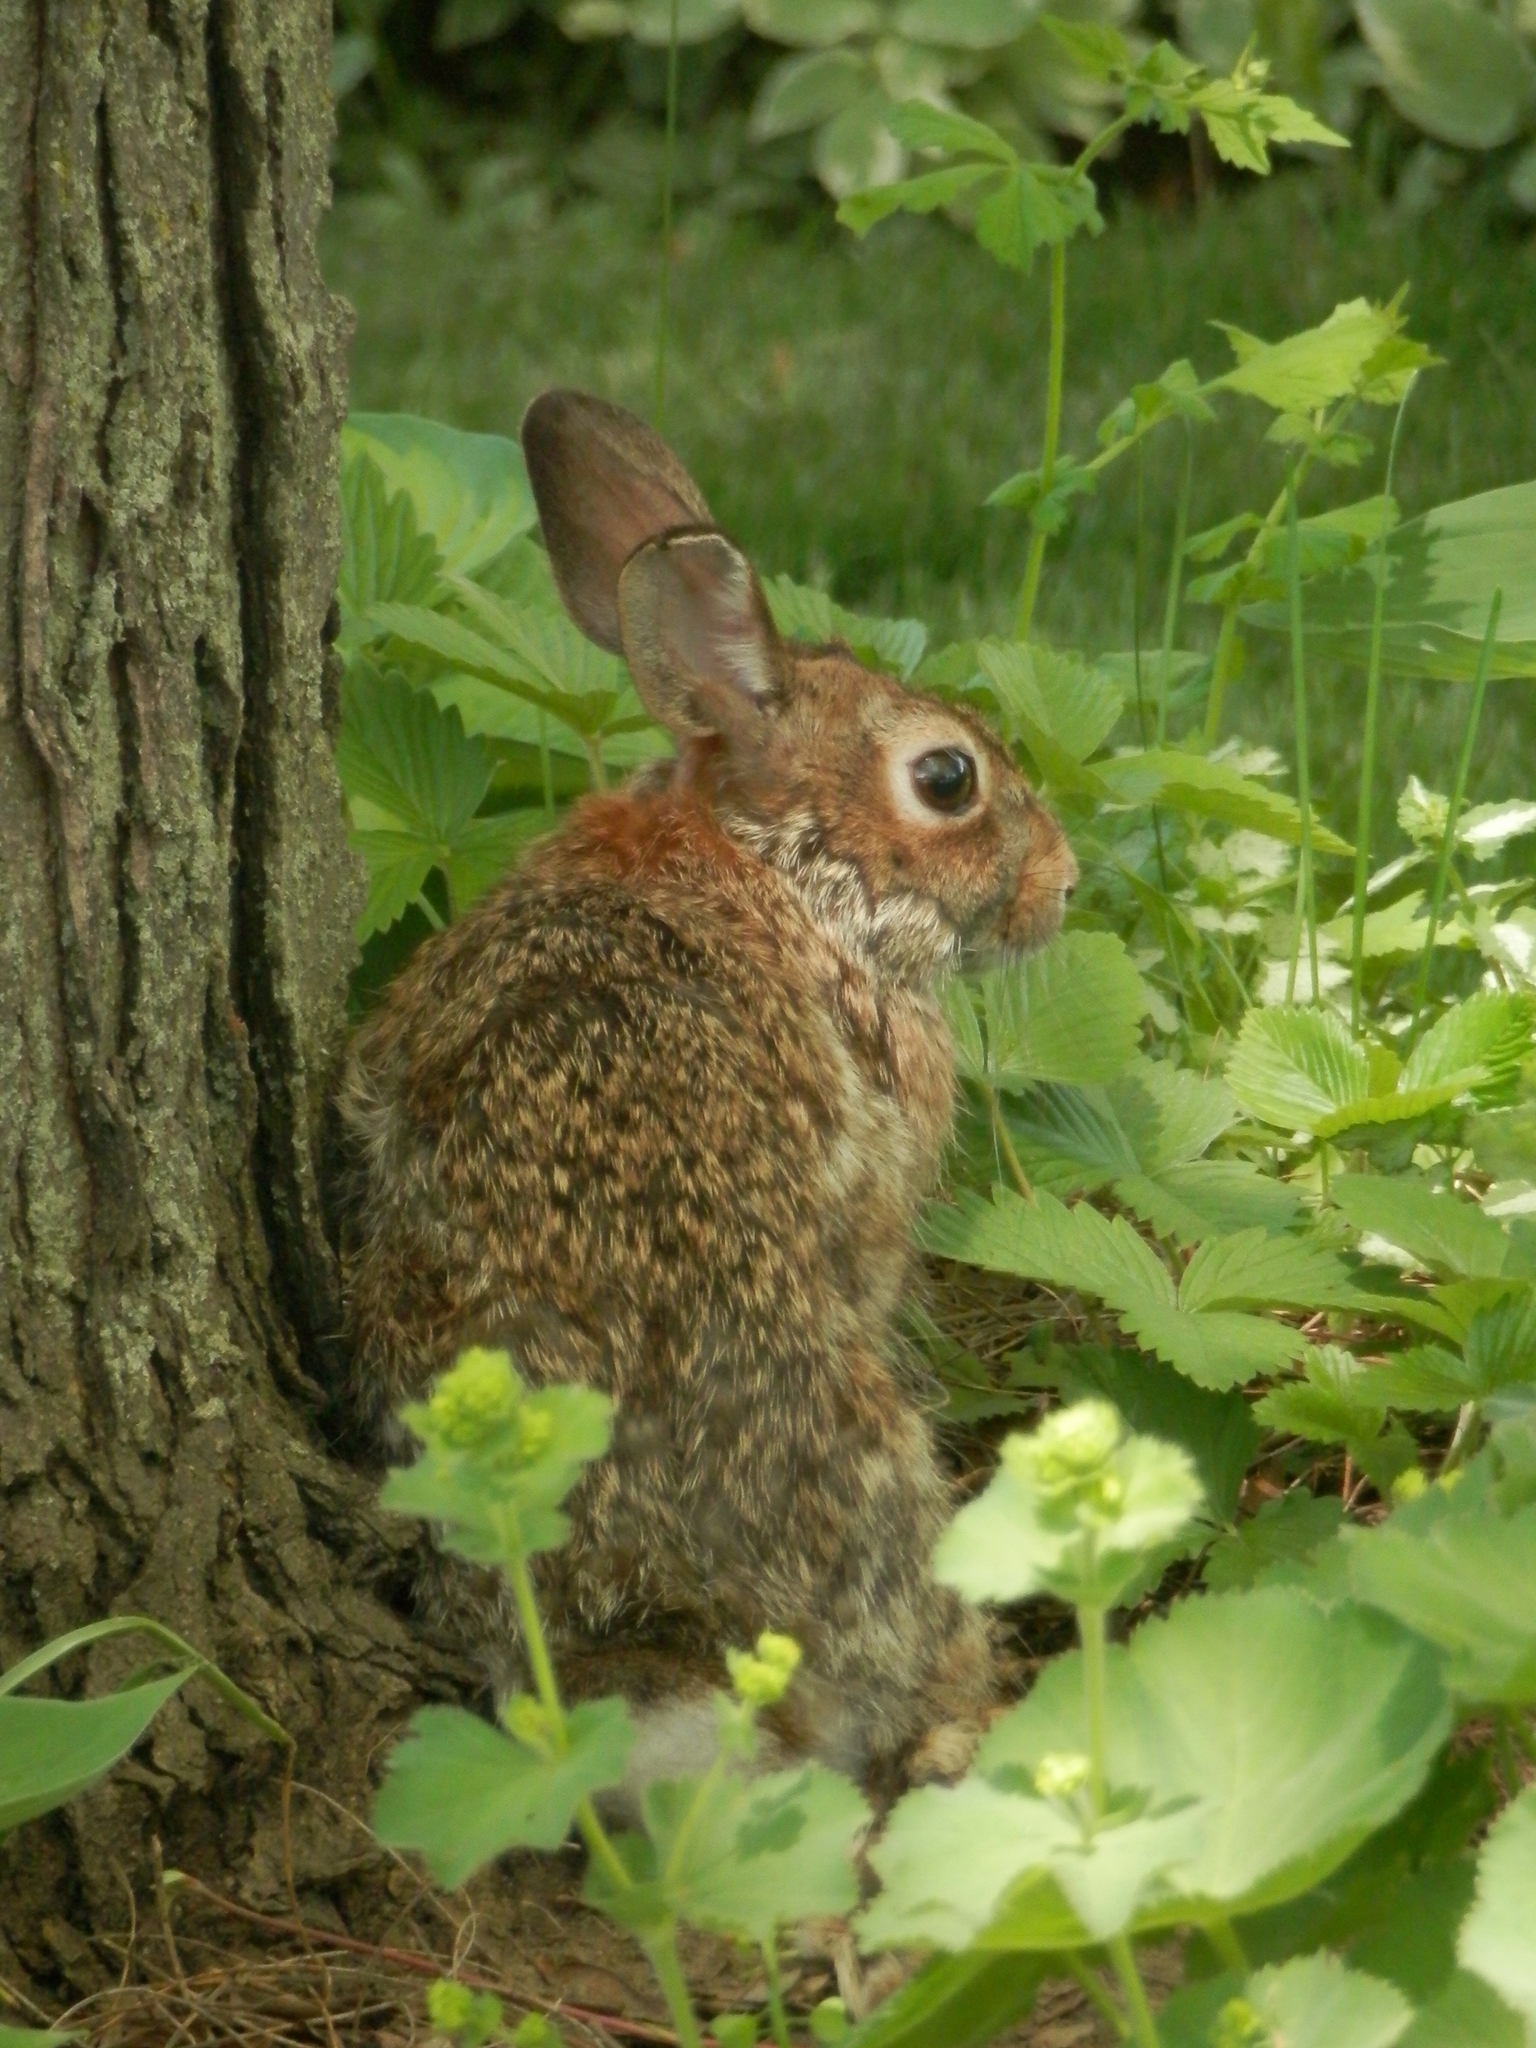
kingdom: Animalia
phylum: Chordata
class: Mammalia
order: Lagomorpha
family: Leporidae
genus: Sylvilagus
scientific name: Sylvilagus floridanus
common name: Eastern cottontail
